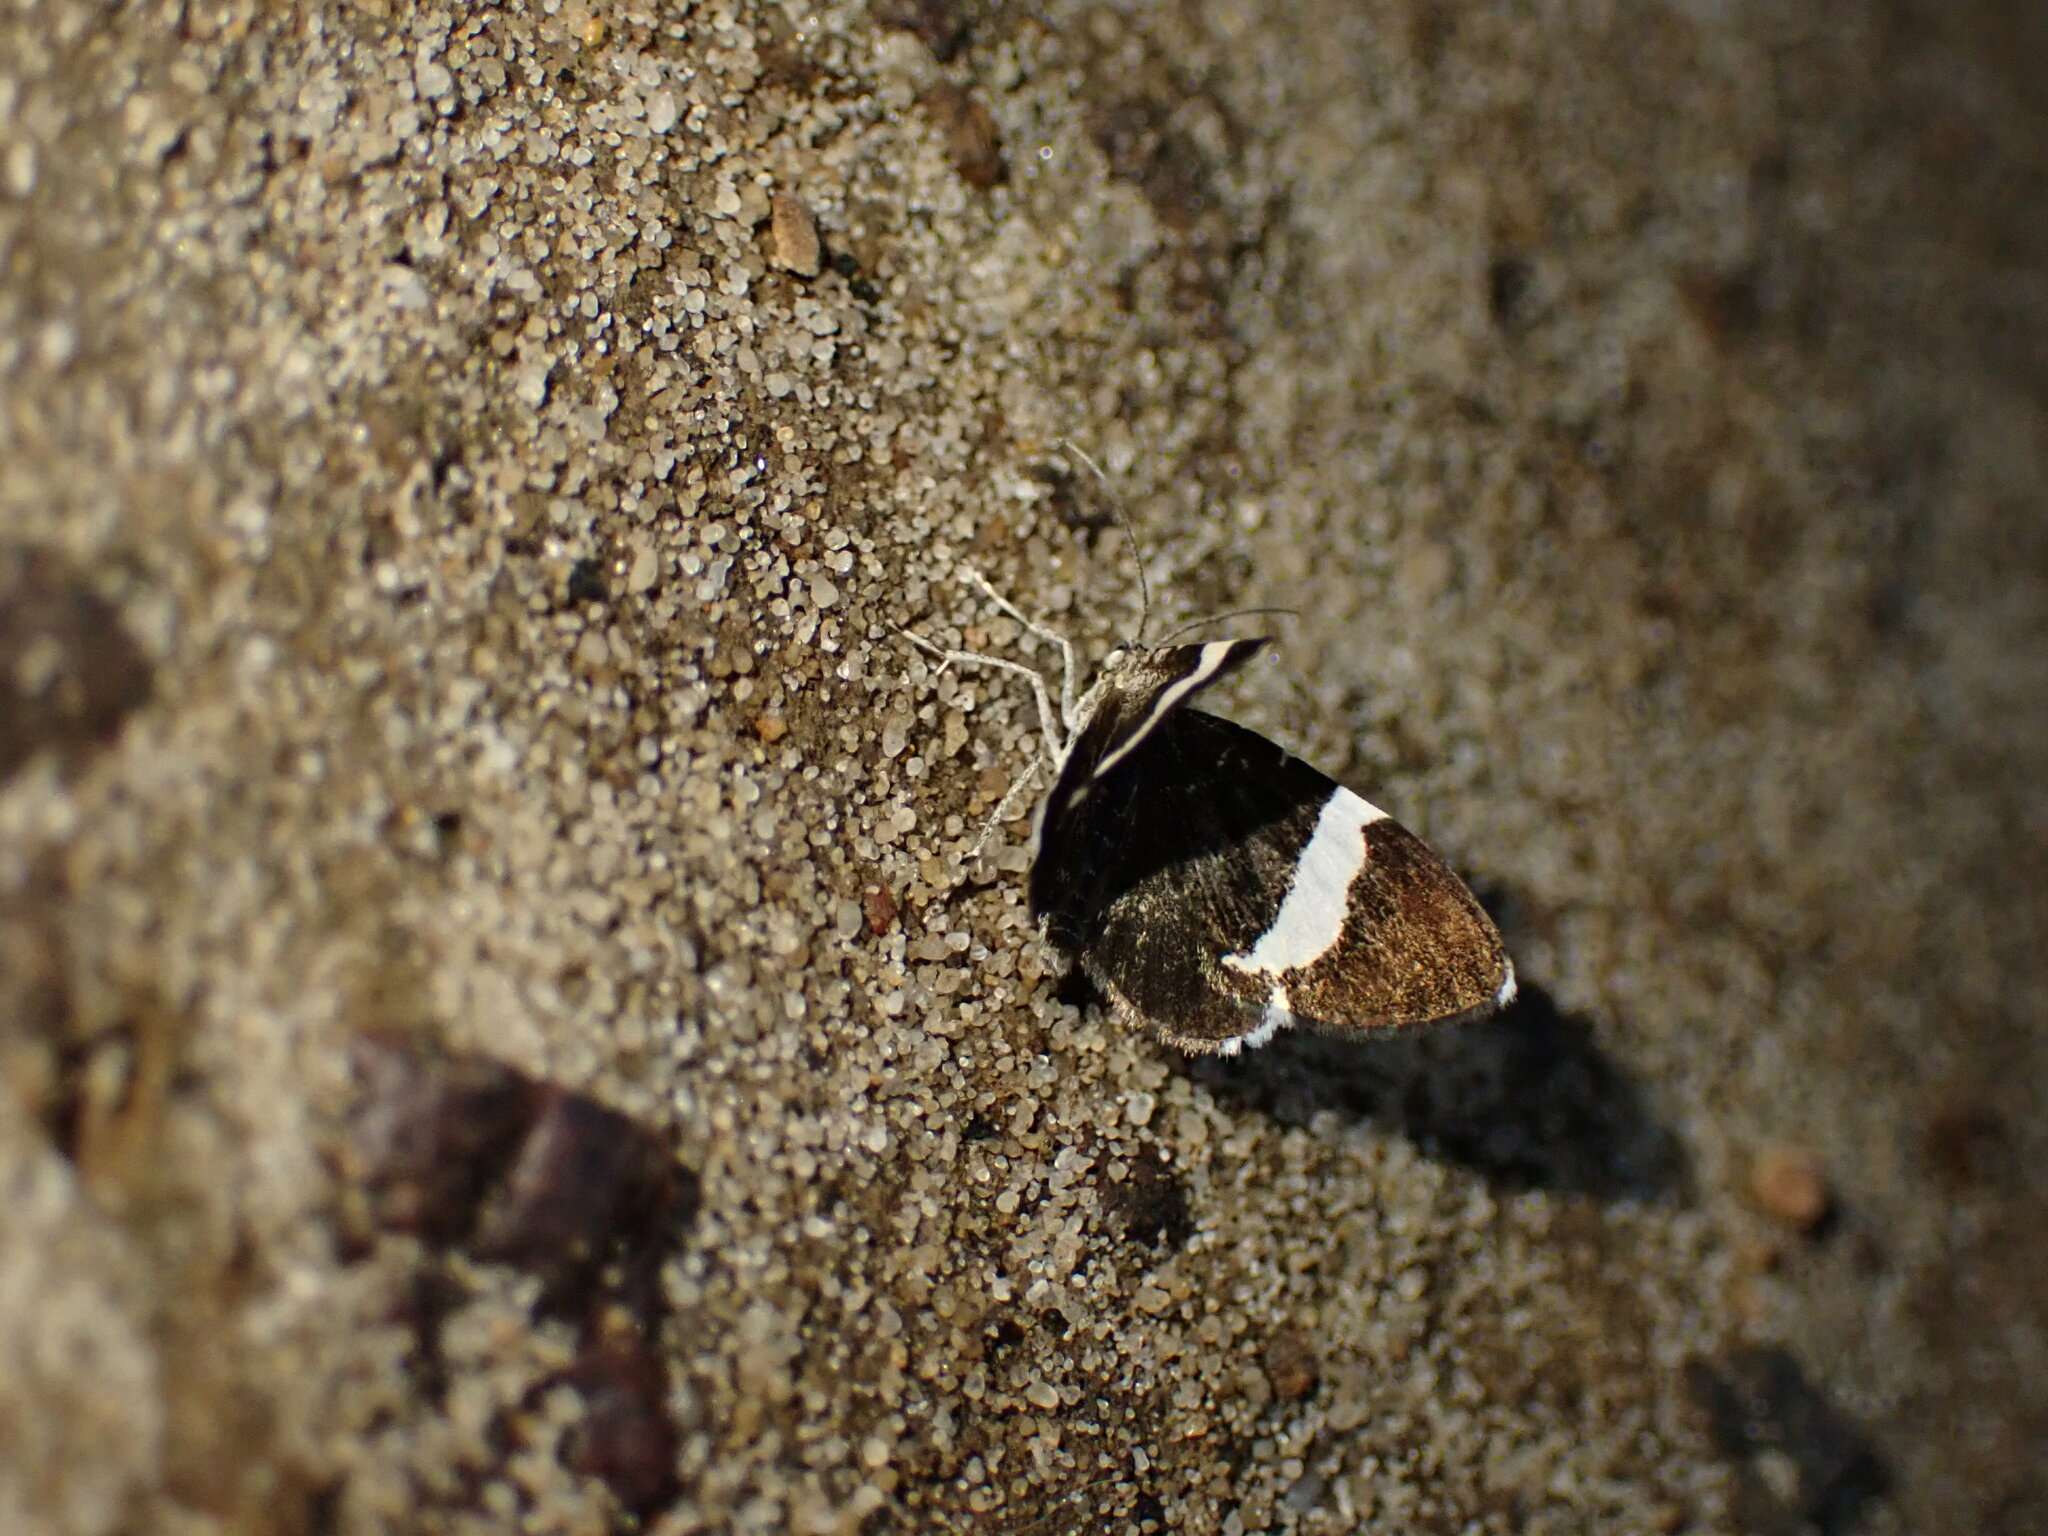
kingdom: Animalia
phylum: Arthropoda
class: Insecta
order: Lepidoptera
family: Geometridae
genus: Trichodezia
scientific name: Trichodezia albovittata
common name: White striped black
